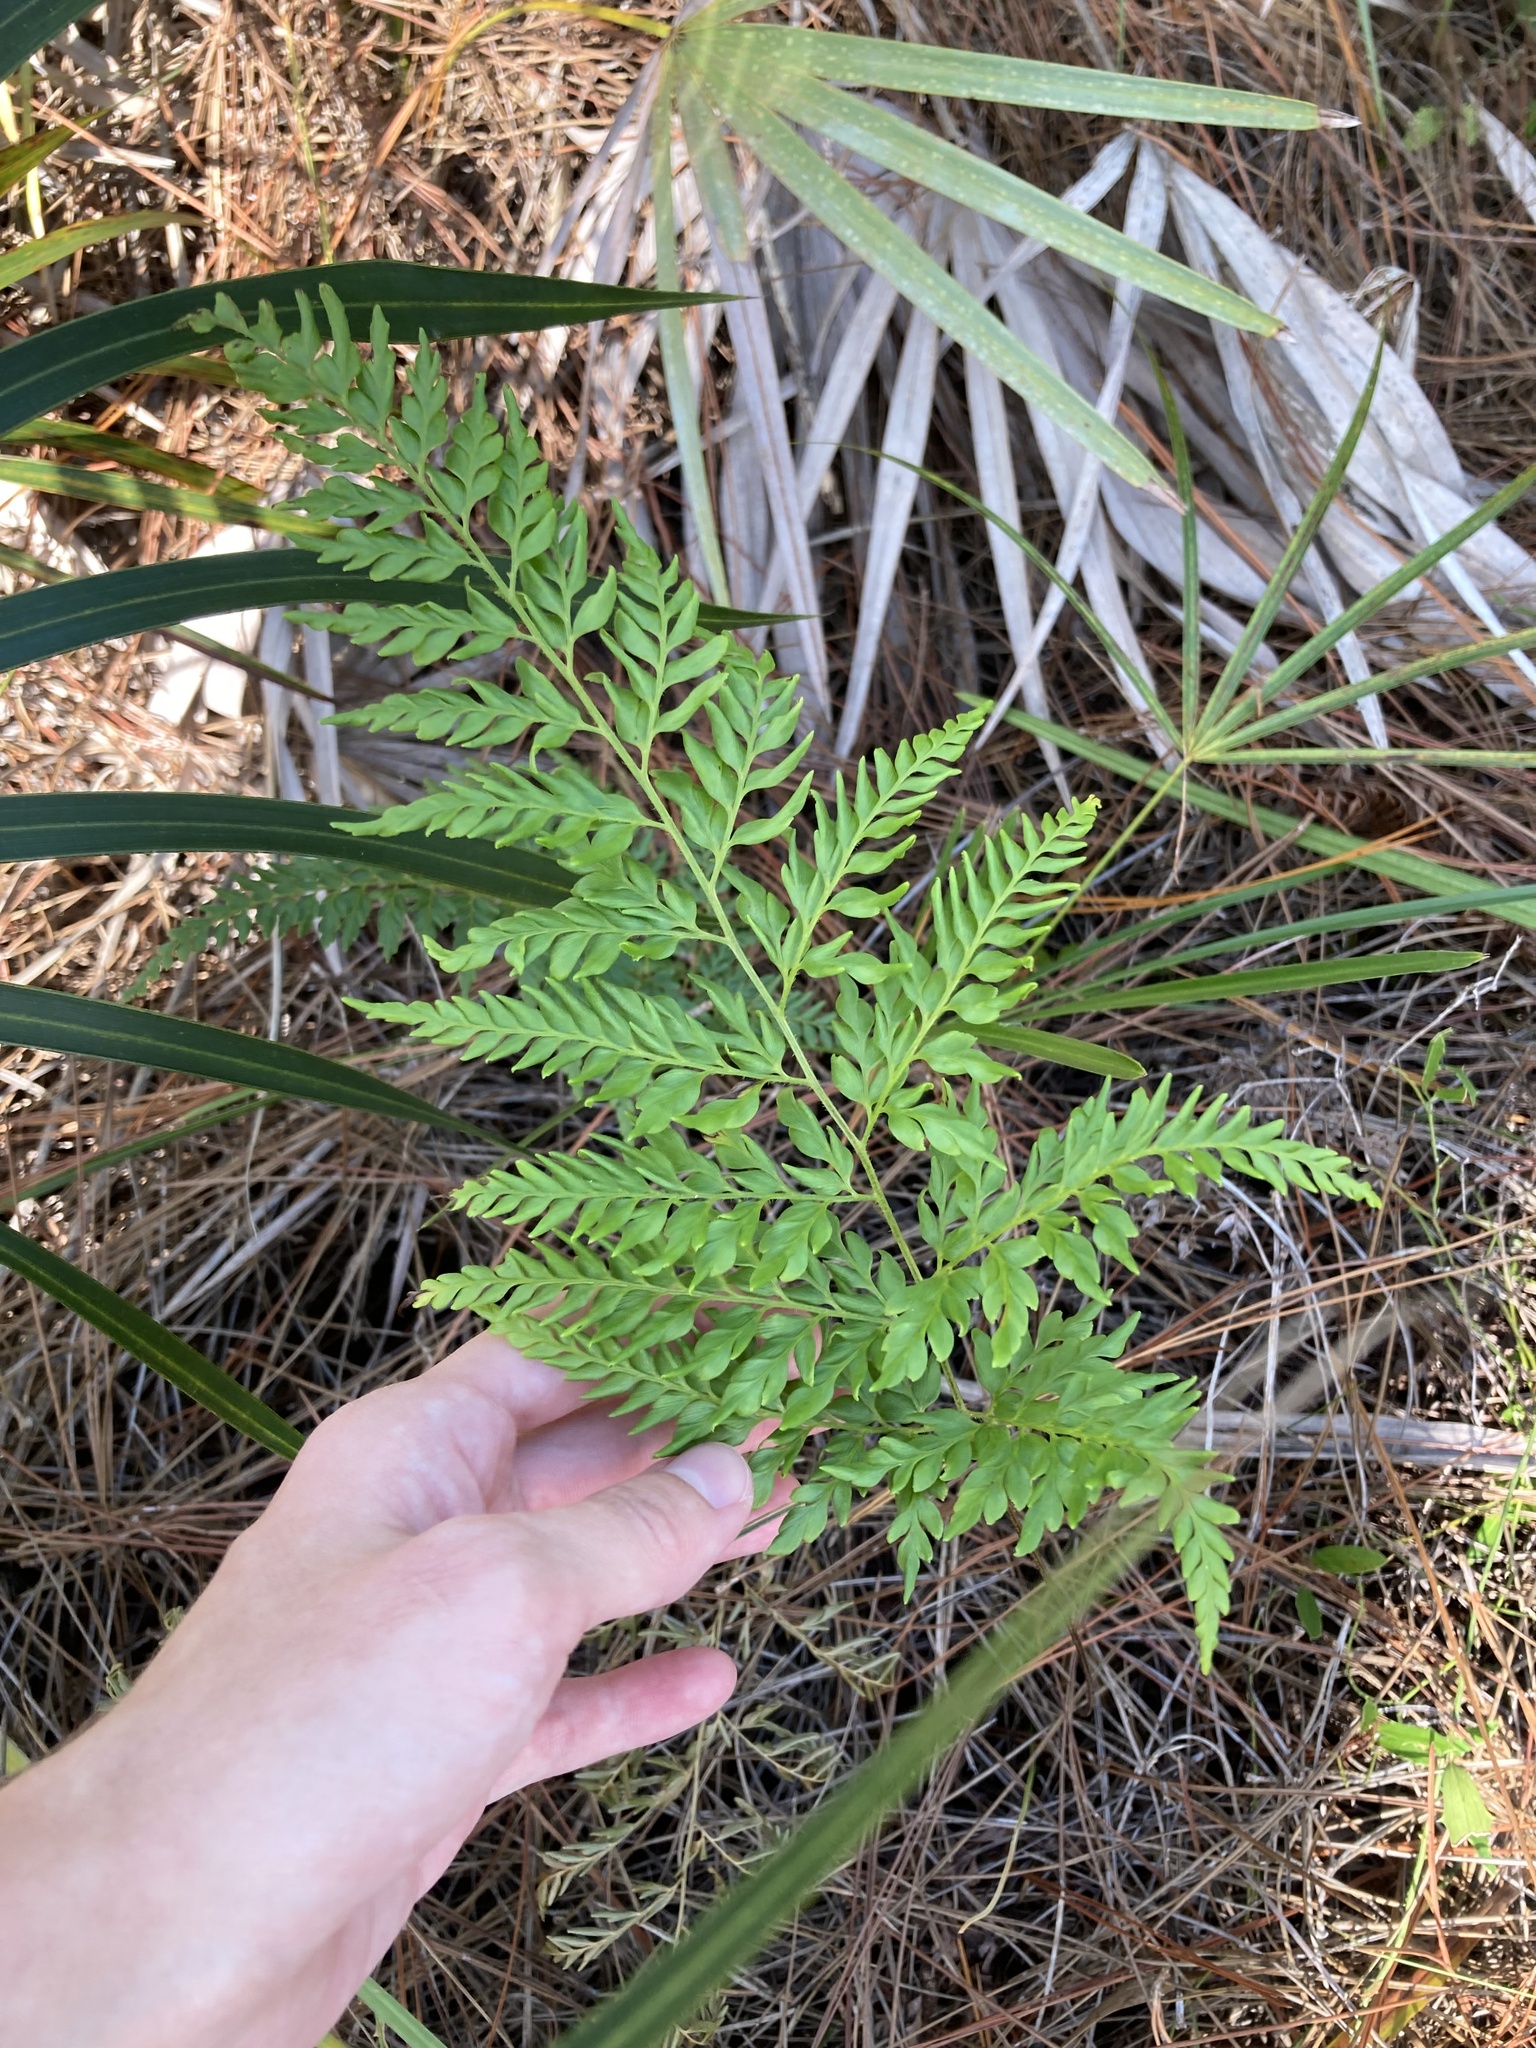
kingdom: Plantae
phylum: Tracheophyta
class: Polypodiopsida
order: Schizaeales
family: Anemiaceae
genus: Anemia
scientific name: Anemia adiantifolia
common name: Pine fern
